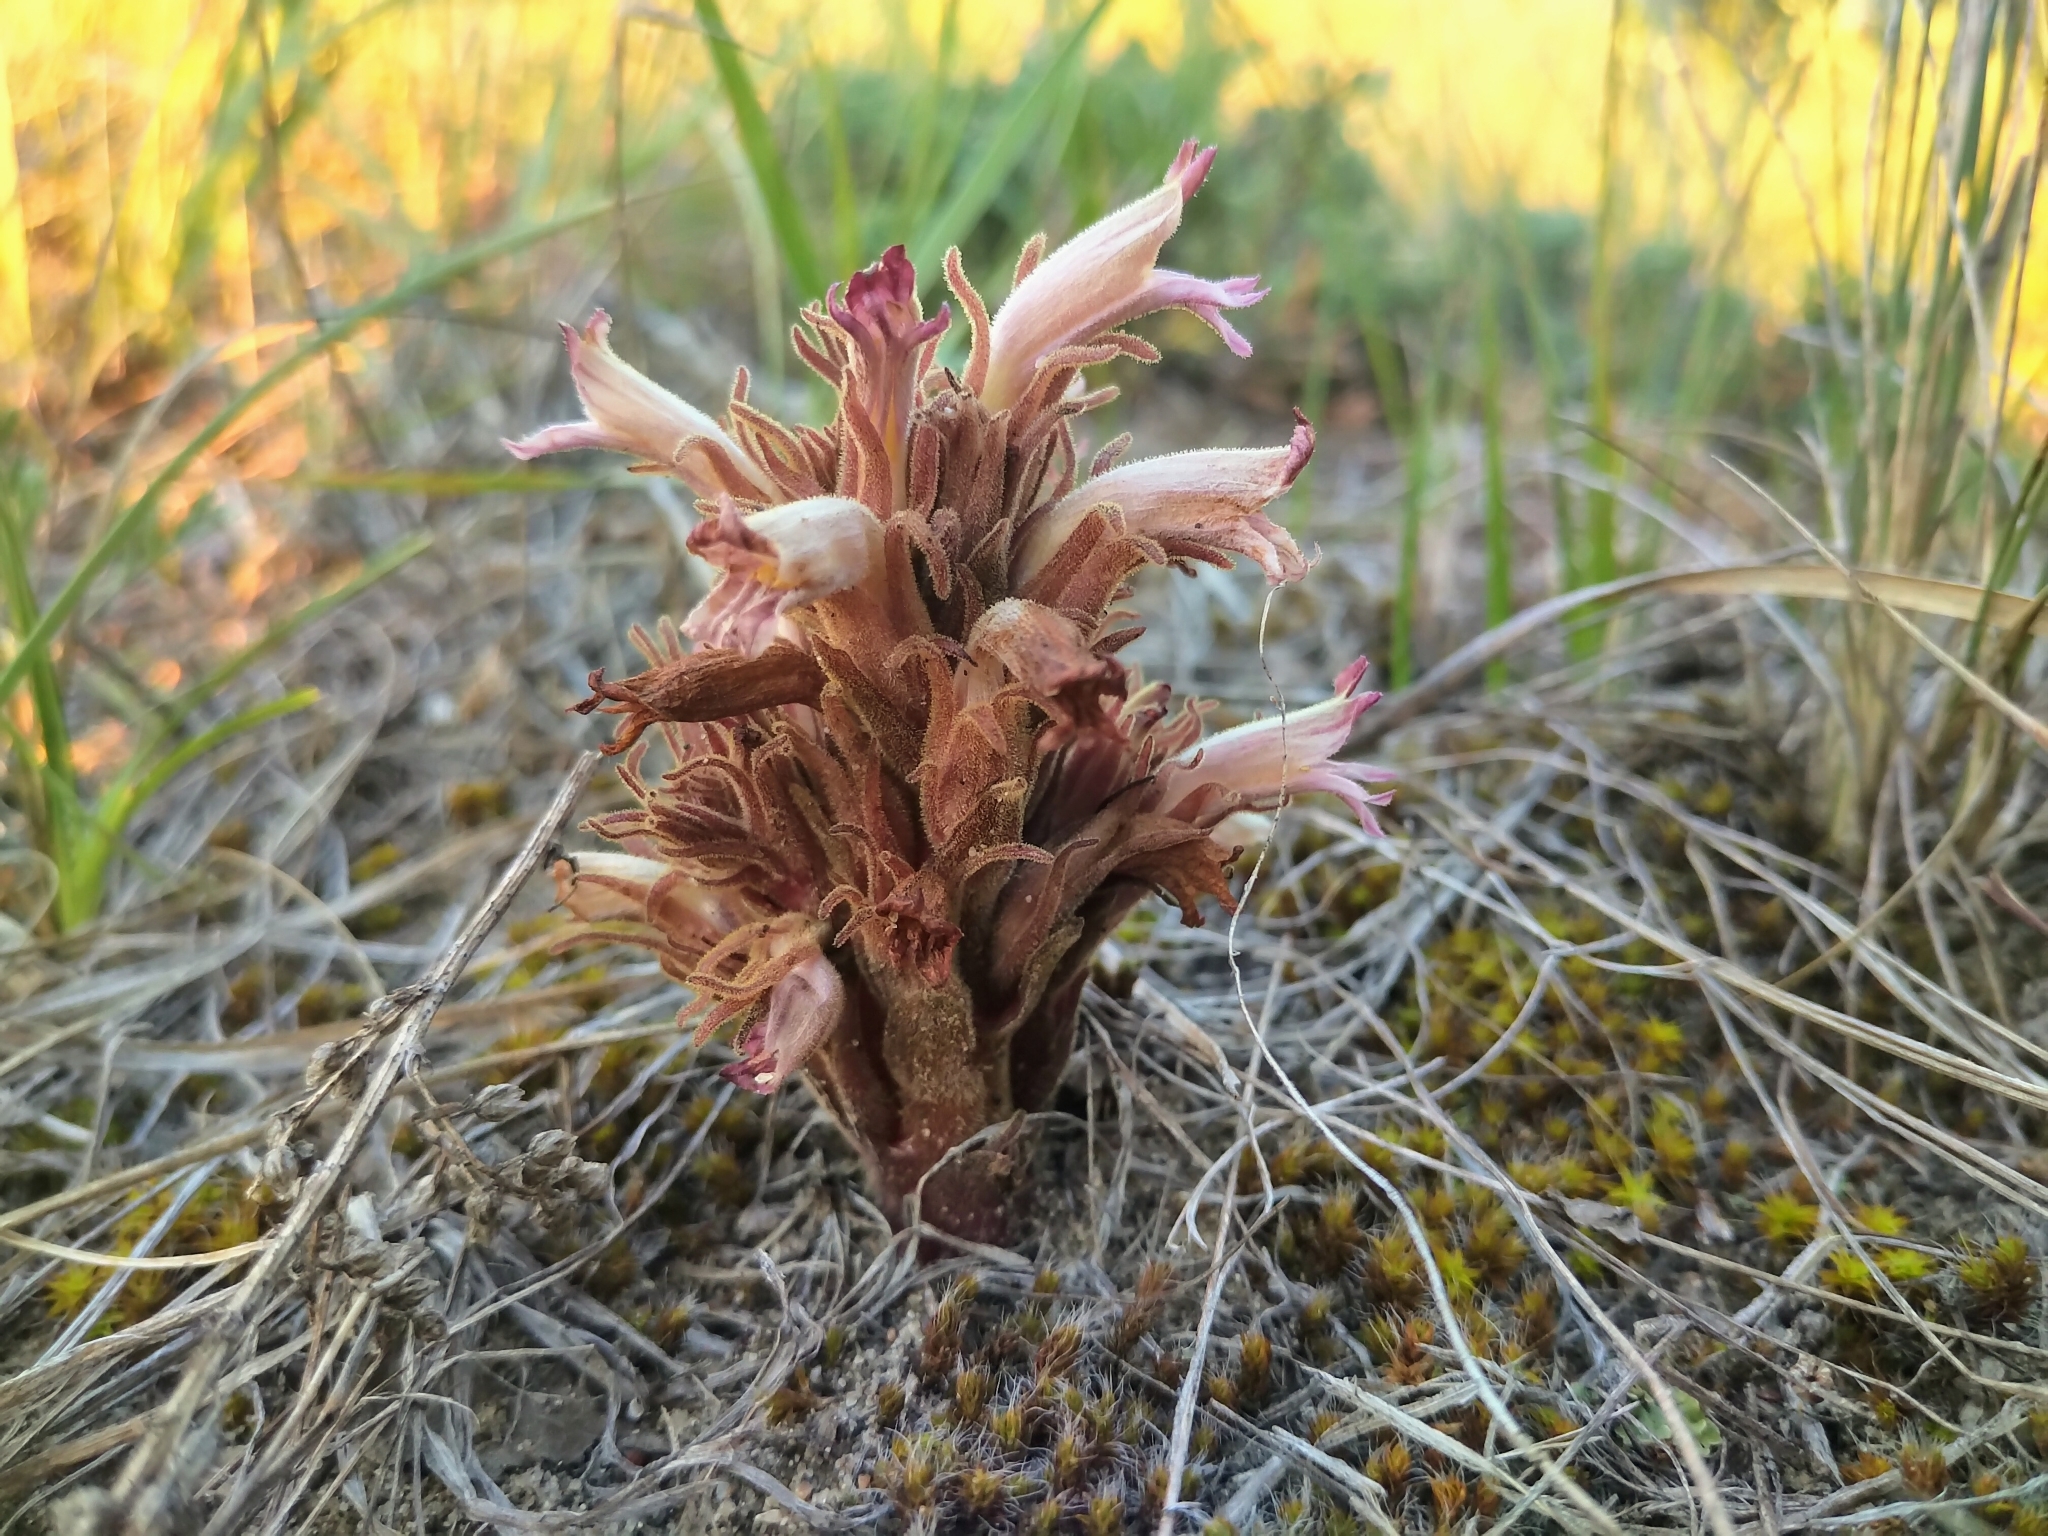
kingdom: Plantae
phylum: Tracheophyta
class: Magnoliopsida
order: Lamiales
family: Orobanchaceae
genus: Aphyllon
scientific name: Aphyllon corymbosum
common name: Flat-top broomrape
